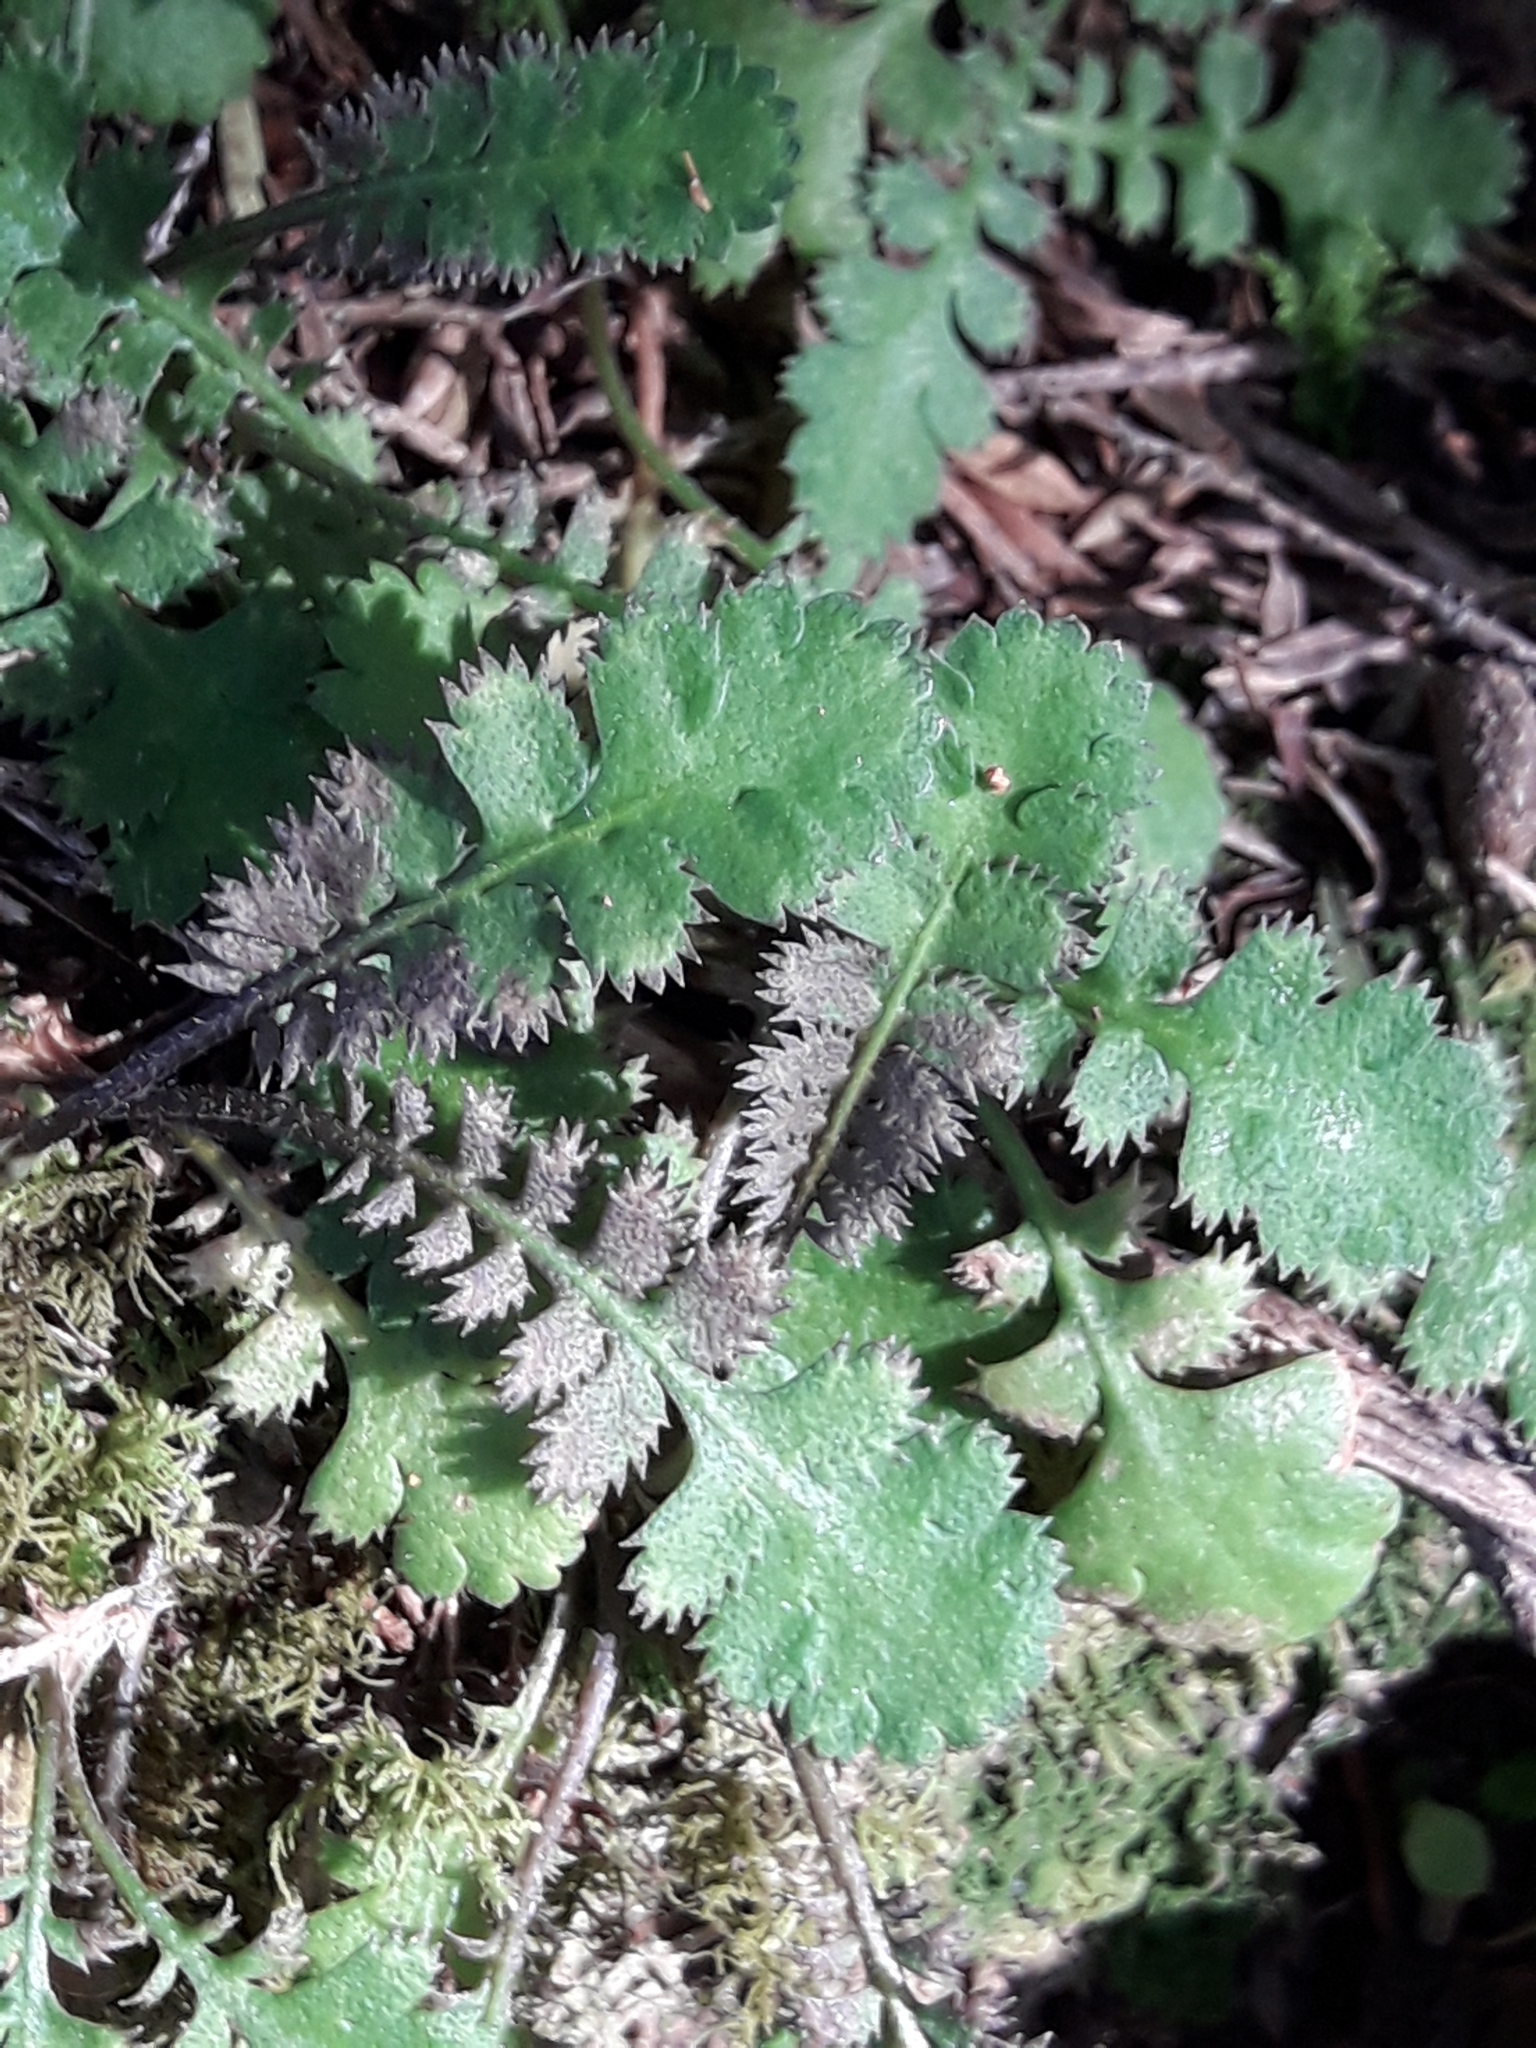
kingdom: Plantae
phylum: Tracheophyta
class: Magnoliopsida
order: Asterales
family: Asteraceae
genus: Leptinella
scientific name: Leptinella squalida
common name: New zealand brass-buttons
